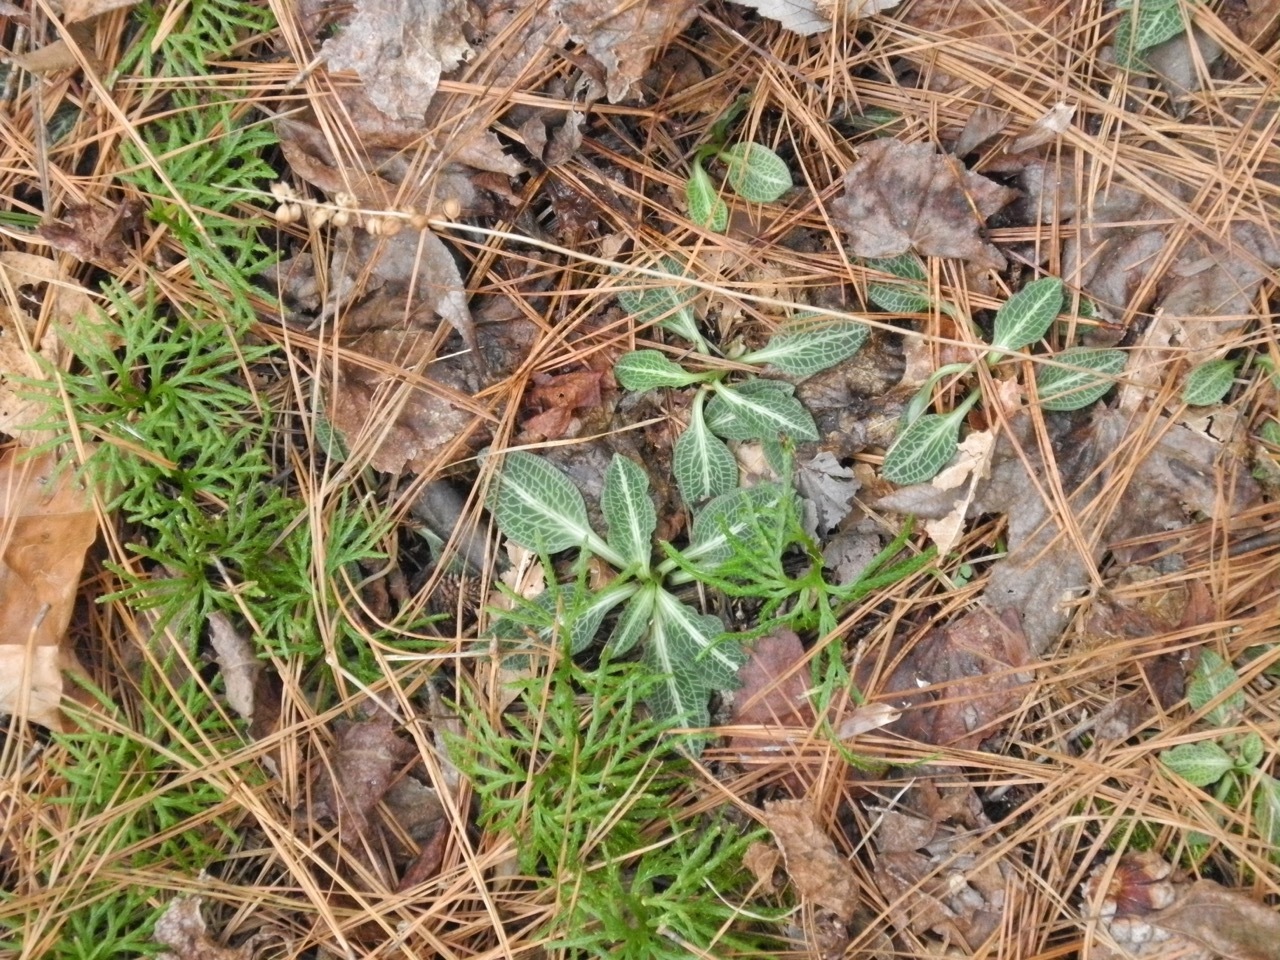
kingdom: Plantae
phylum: Tracheophyta
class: Liliopsida
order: Asparagales
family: Orchidaceae
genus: Goodyera
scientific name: Goodyera pubescens
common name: Downy rattlesnake-plantain
